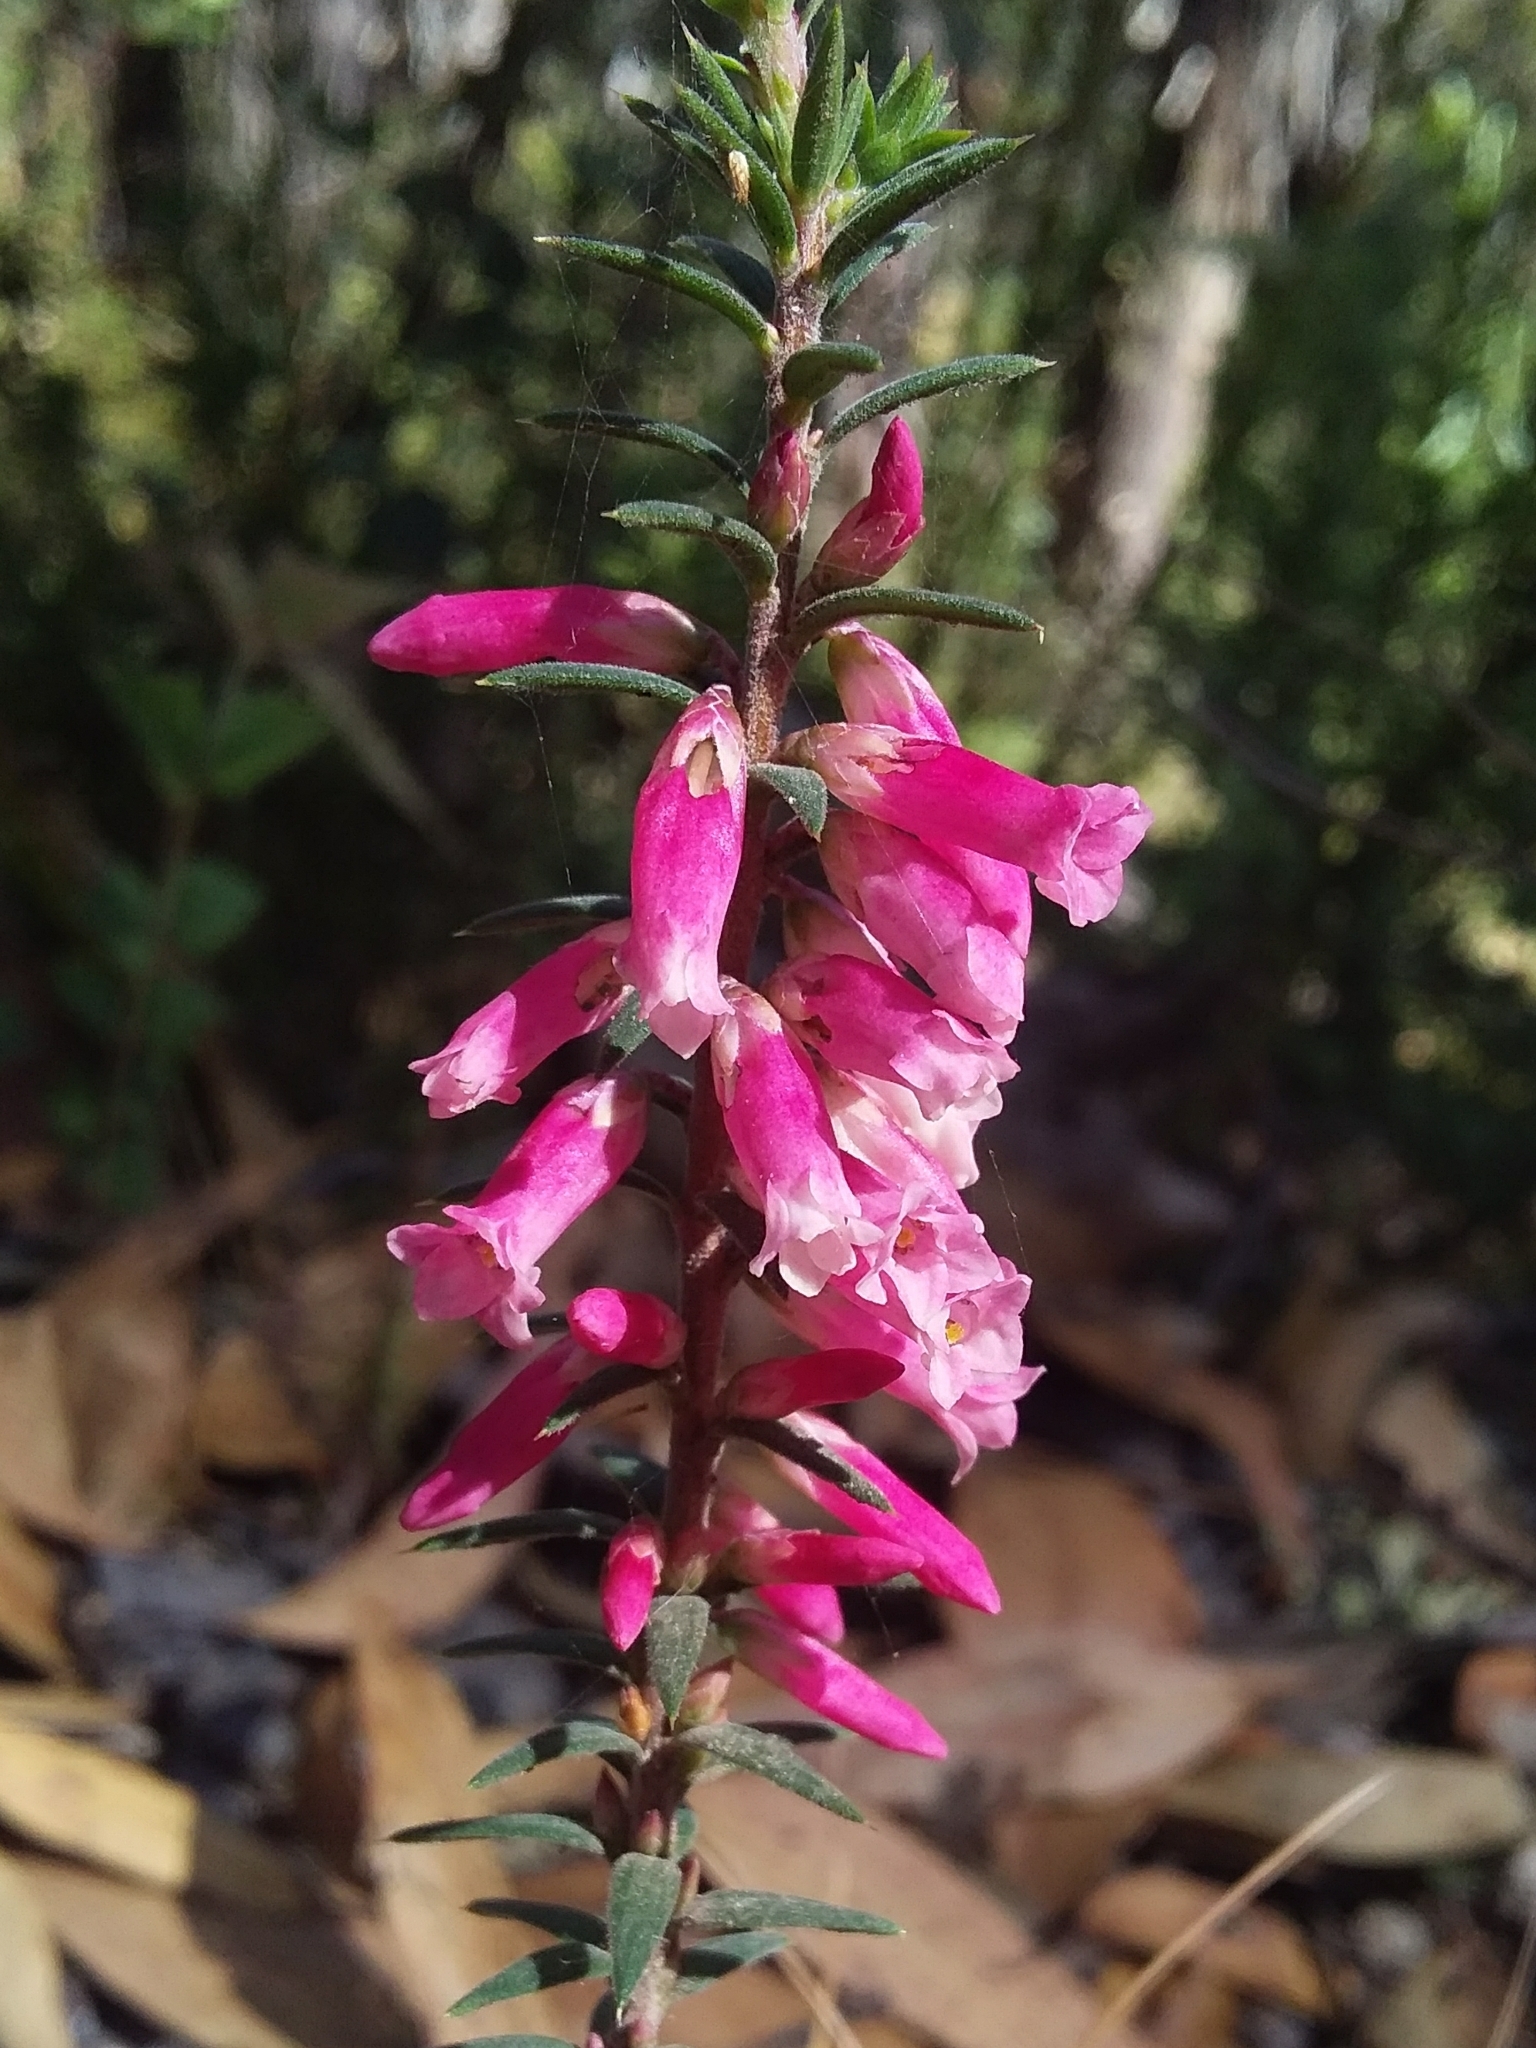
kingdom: Plantae
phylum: Tracheophyta
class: Magnoliopsida
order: Ericales
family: Ericaceae
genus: Epacris
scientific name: Epacris impressa
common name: Common-heath
